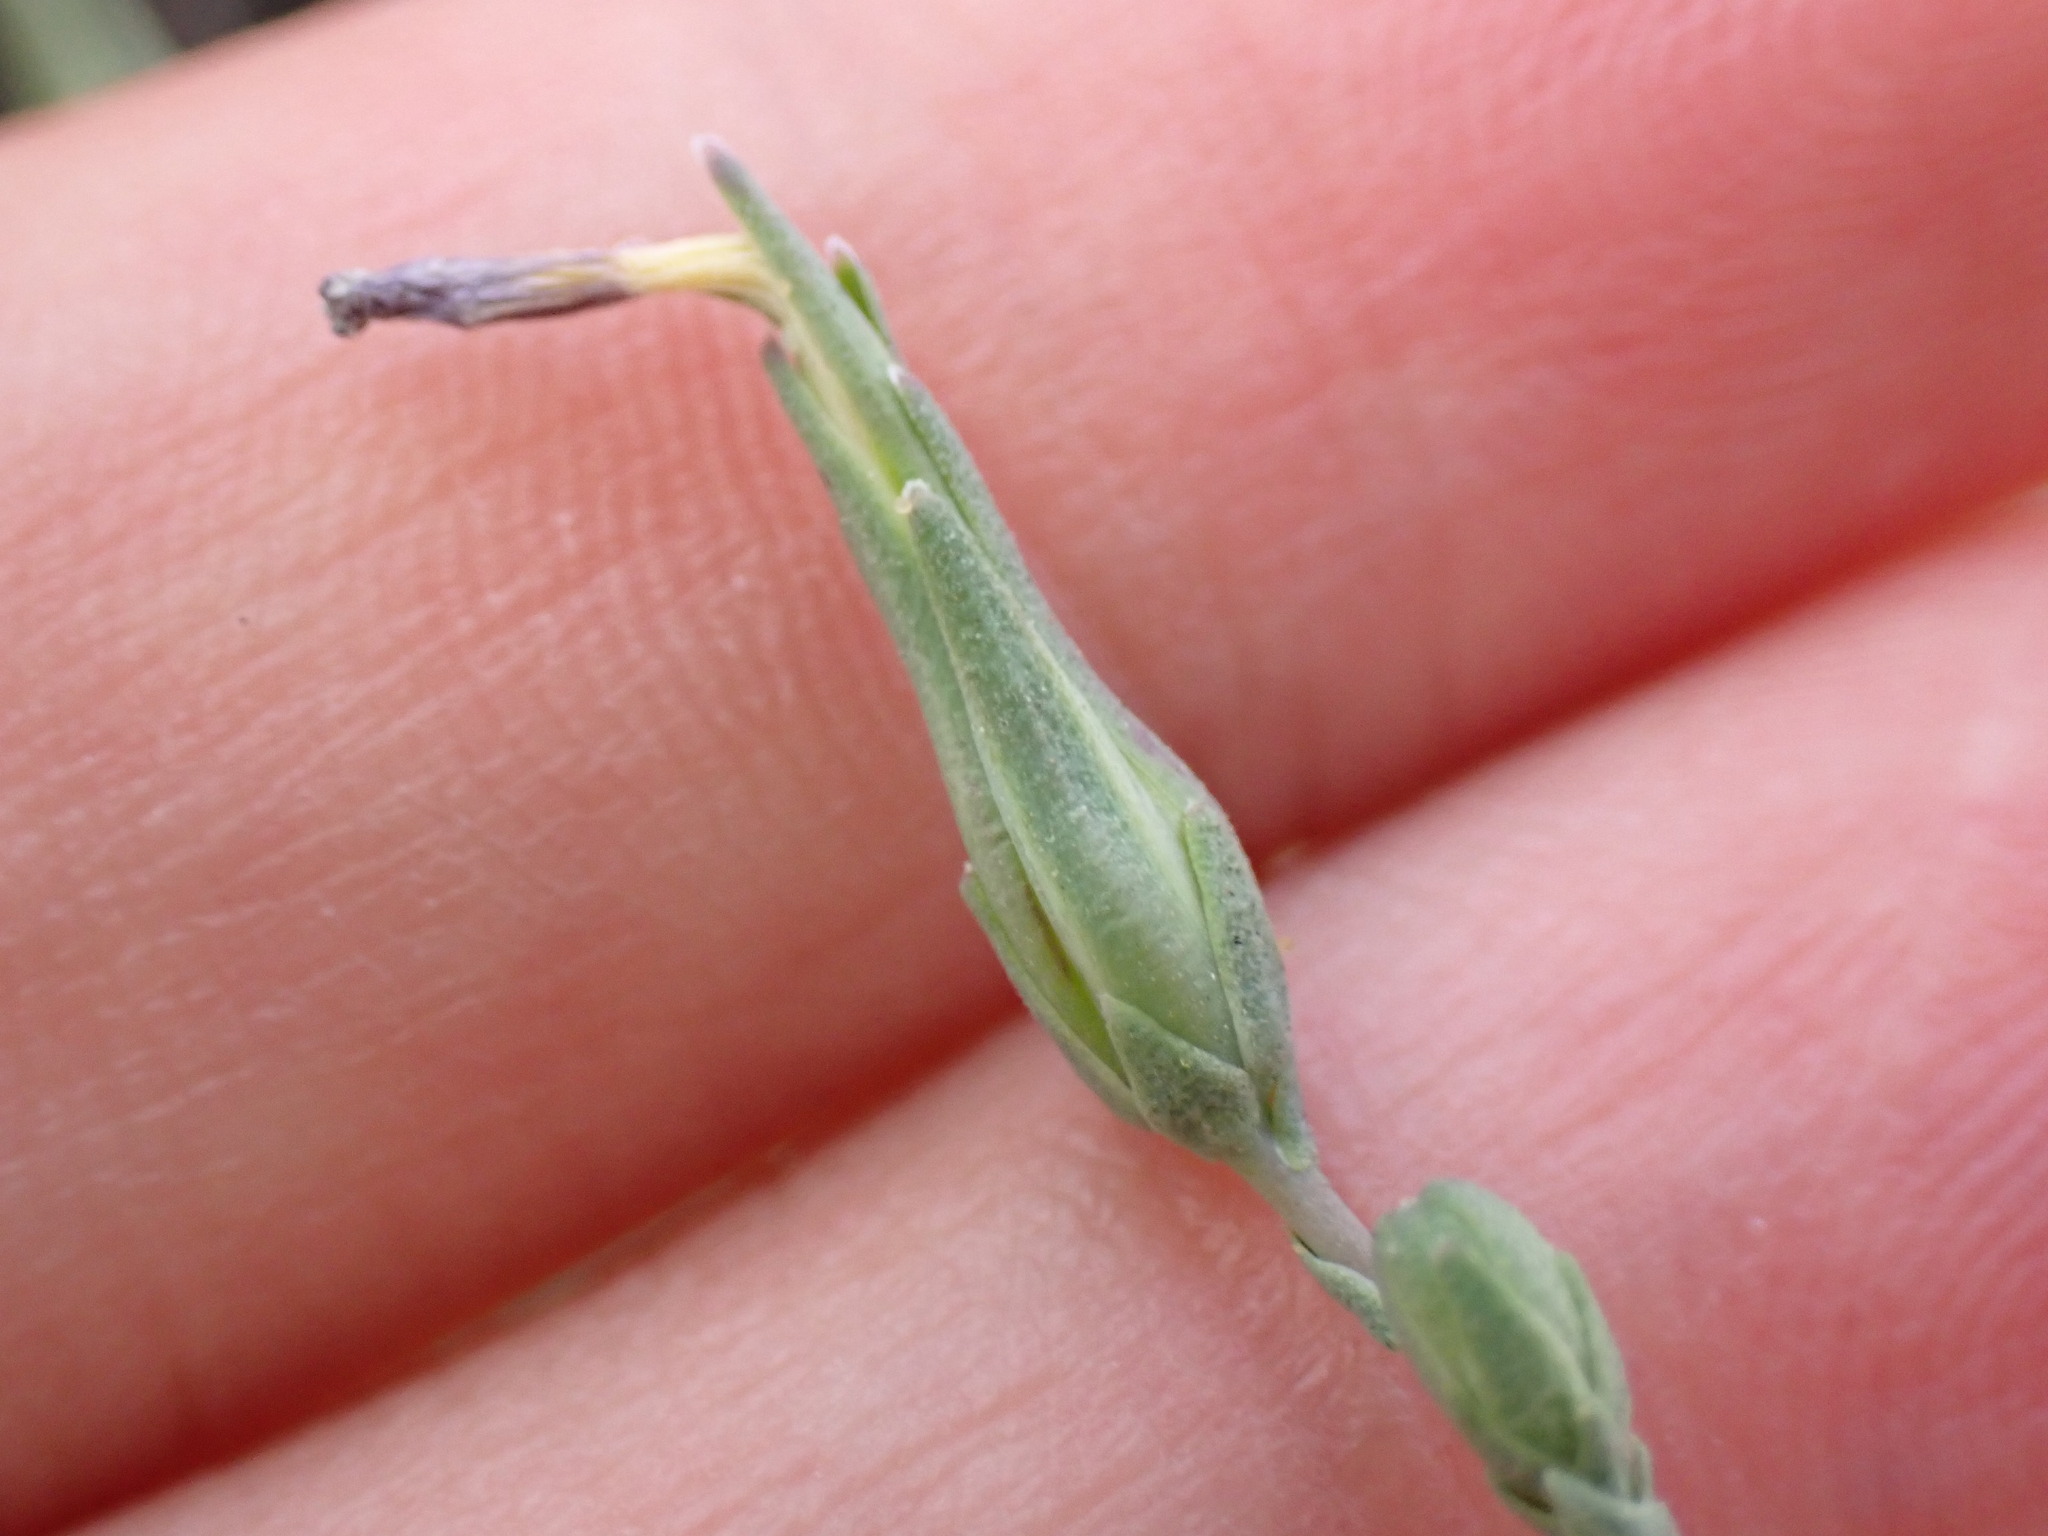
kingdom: Plantae
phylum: Tracheophyta
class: Magnoliopsida
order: Asterales
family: Asteraceae
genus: Lactuca
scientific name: Lactuca serriola
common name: Prickly lettuce
